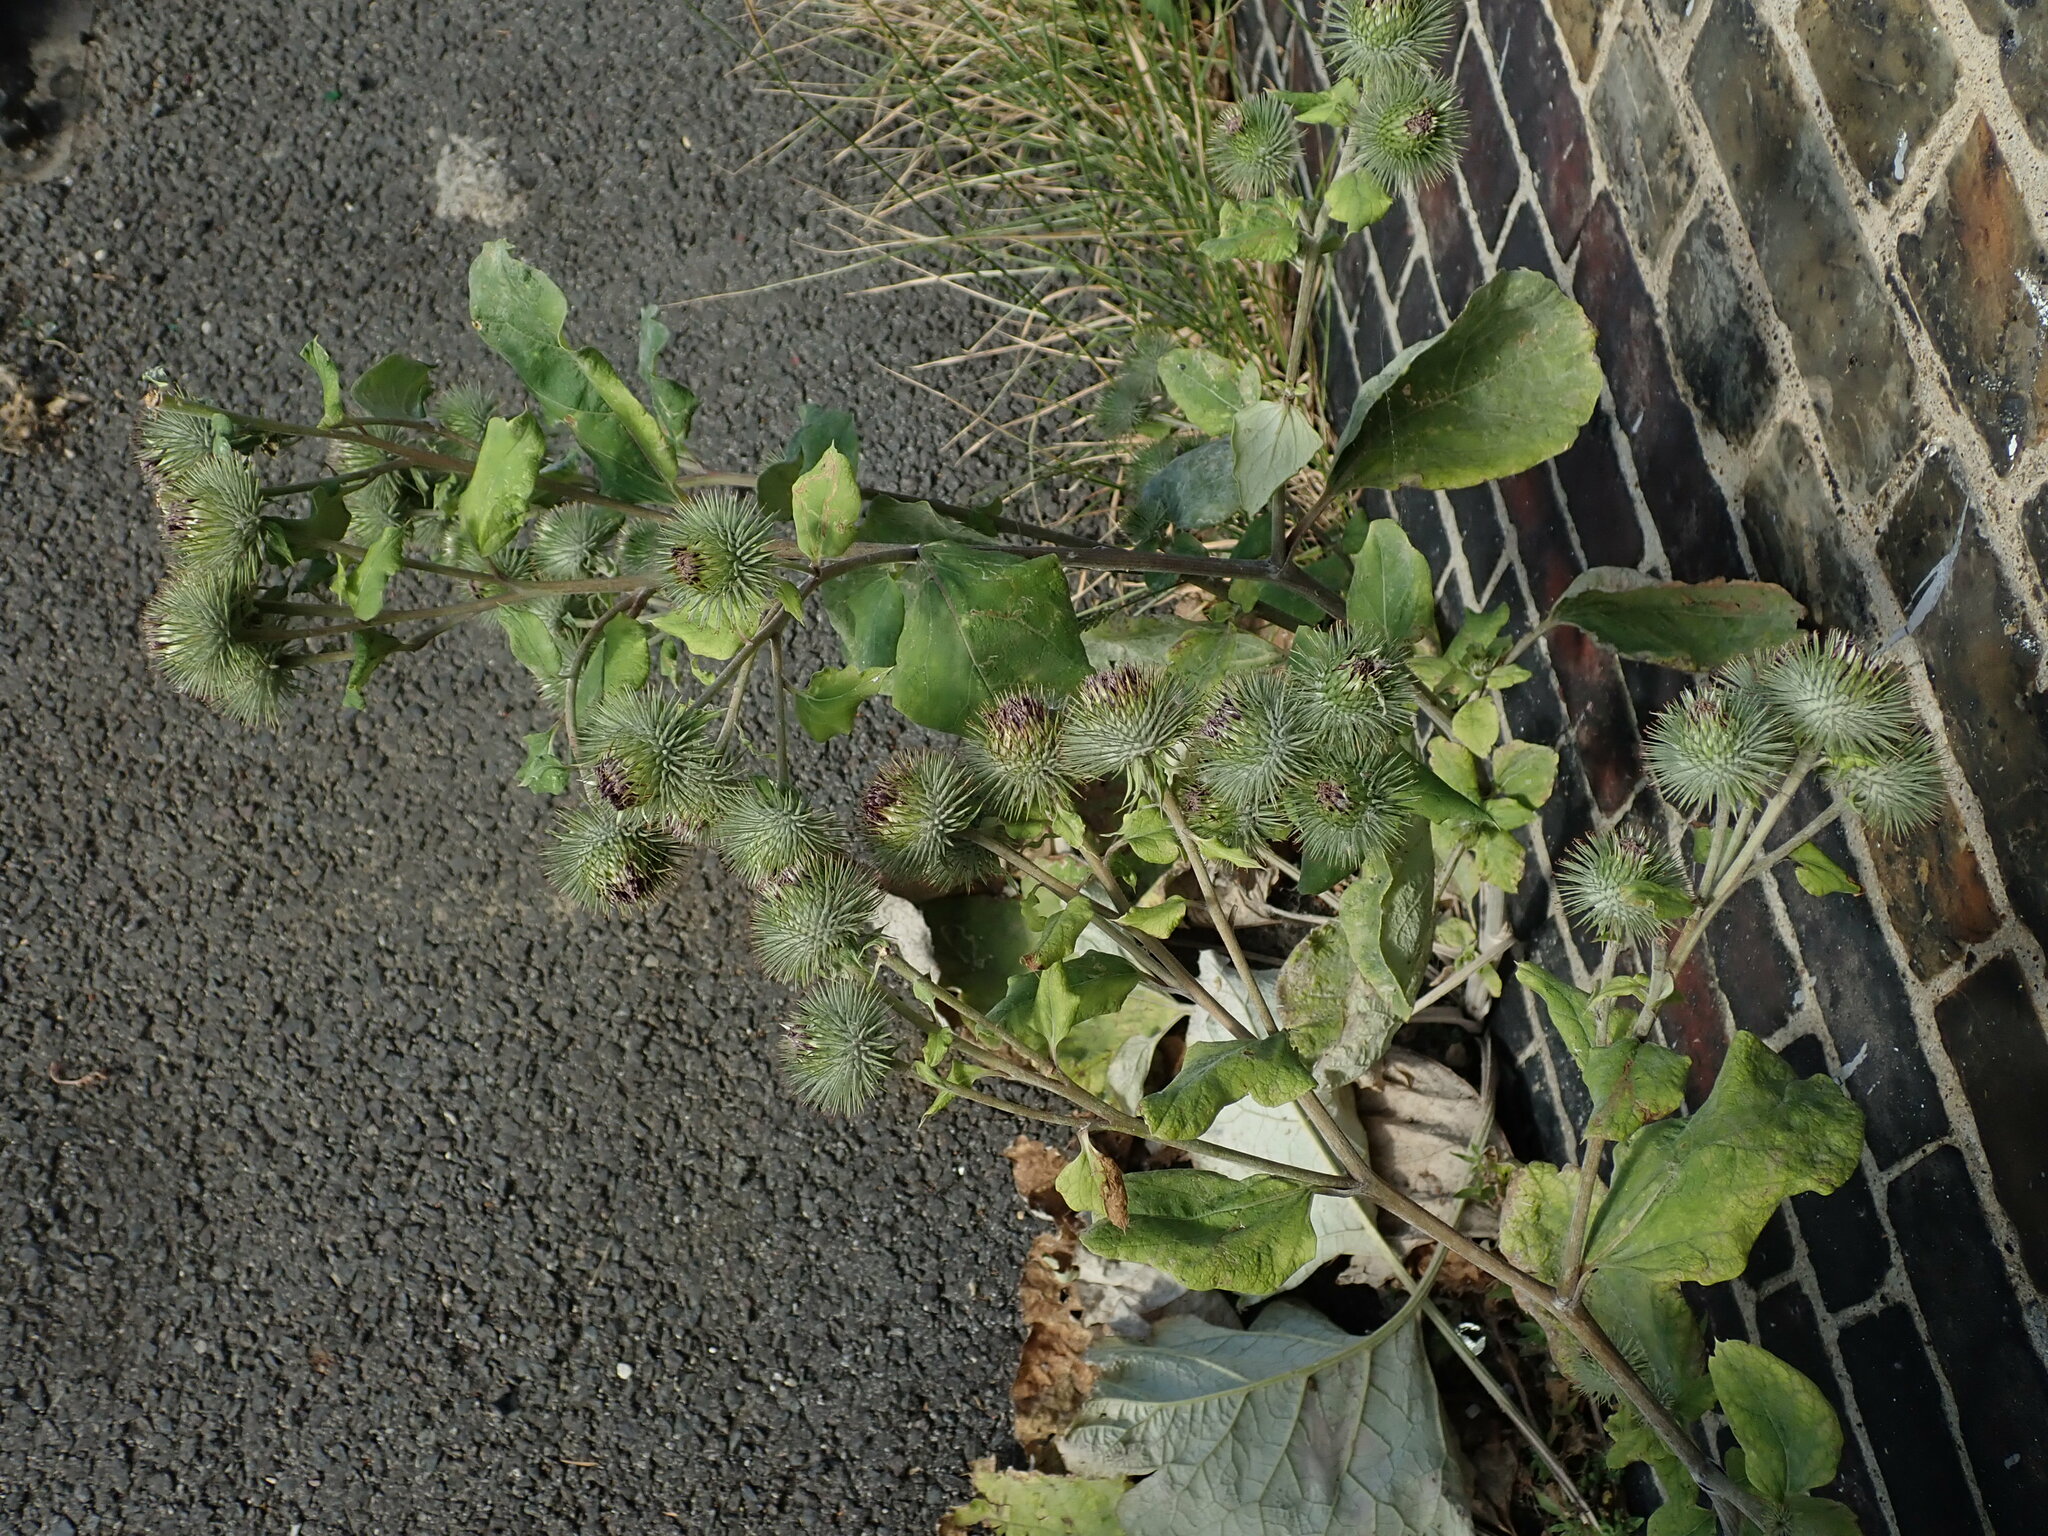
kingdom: Plantae
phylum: Tracheophyta
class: Magnoliopsida
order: Asterales
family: Asteraceae
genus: Arctium
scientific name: Arctium lappa
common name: Greater burdock
